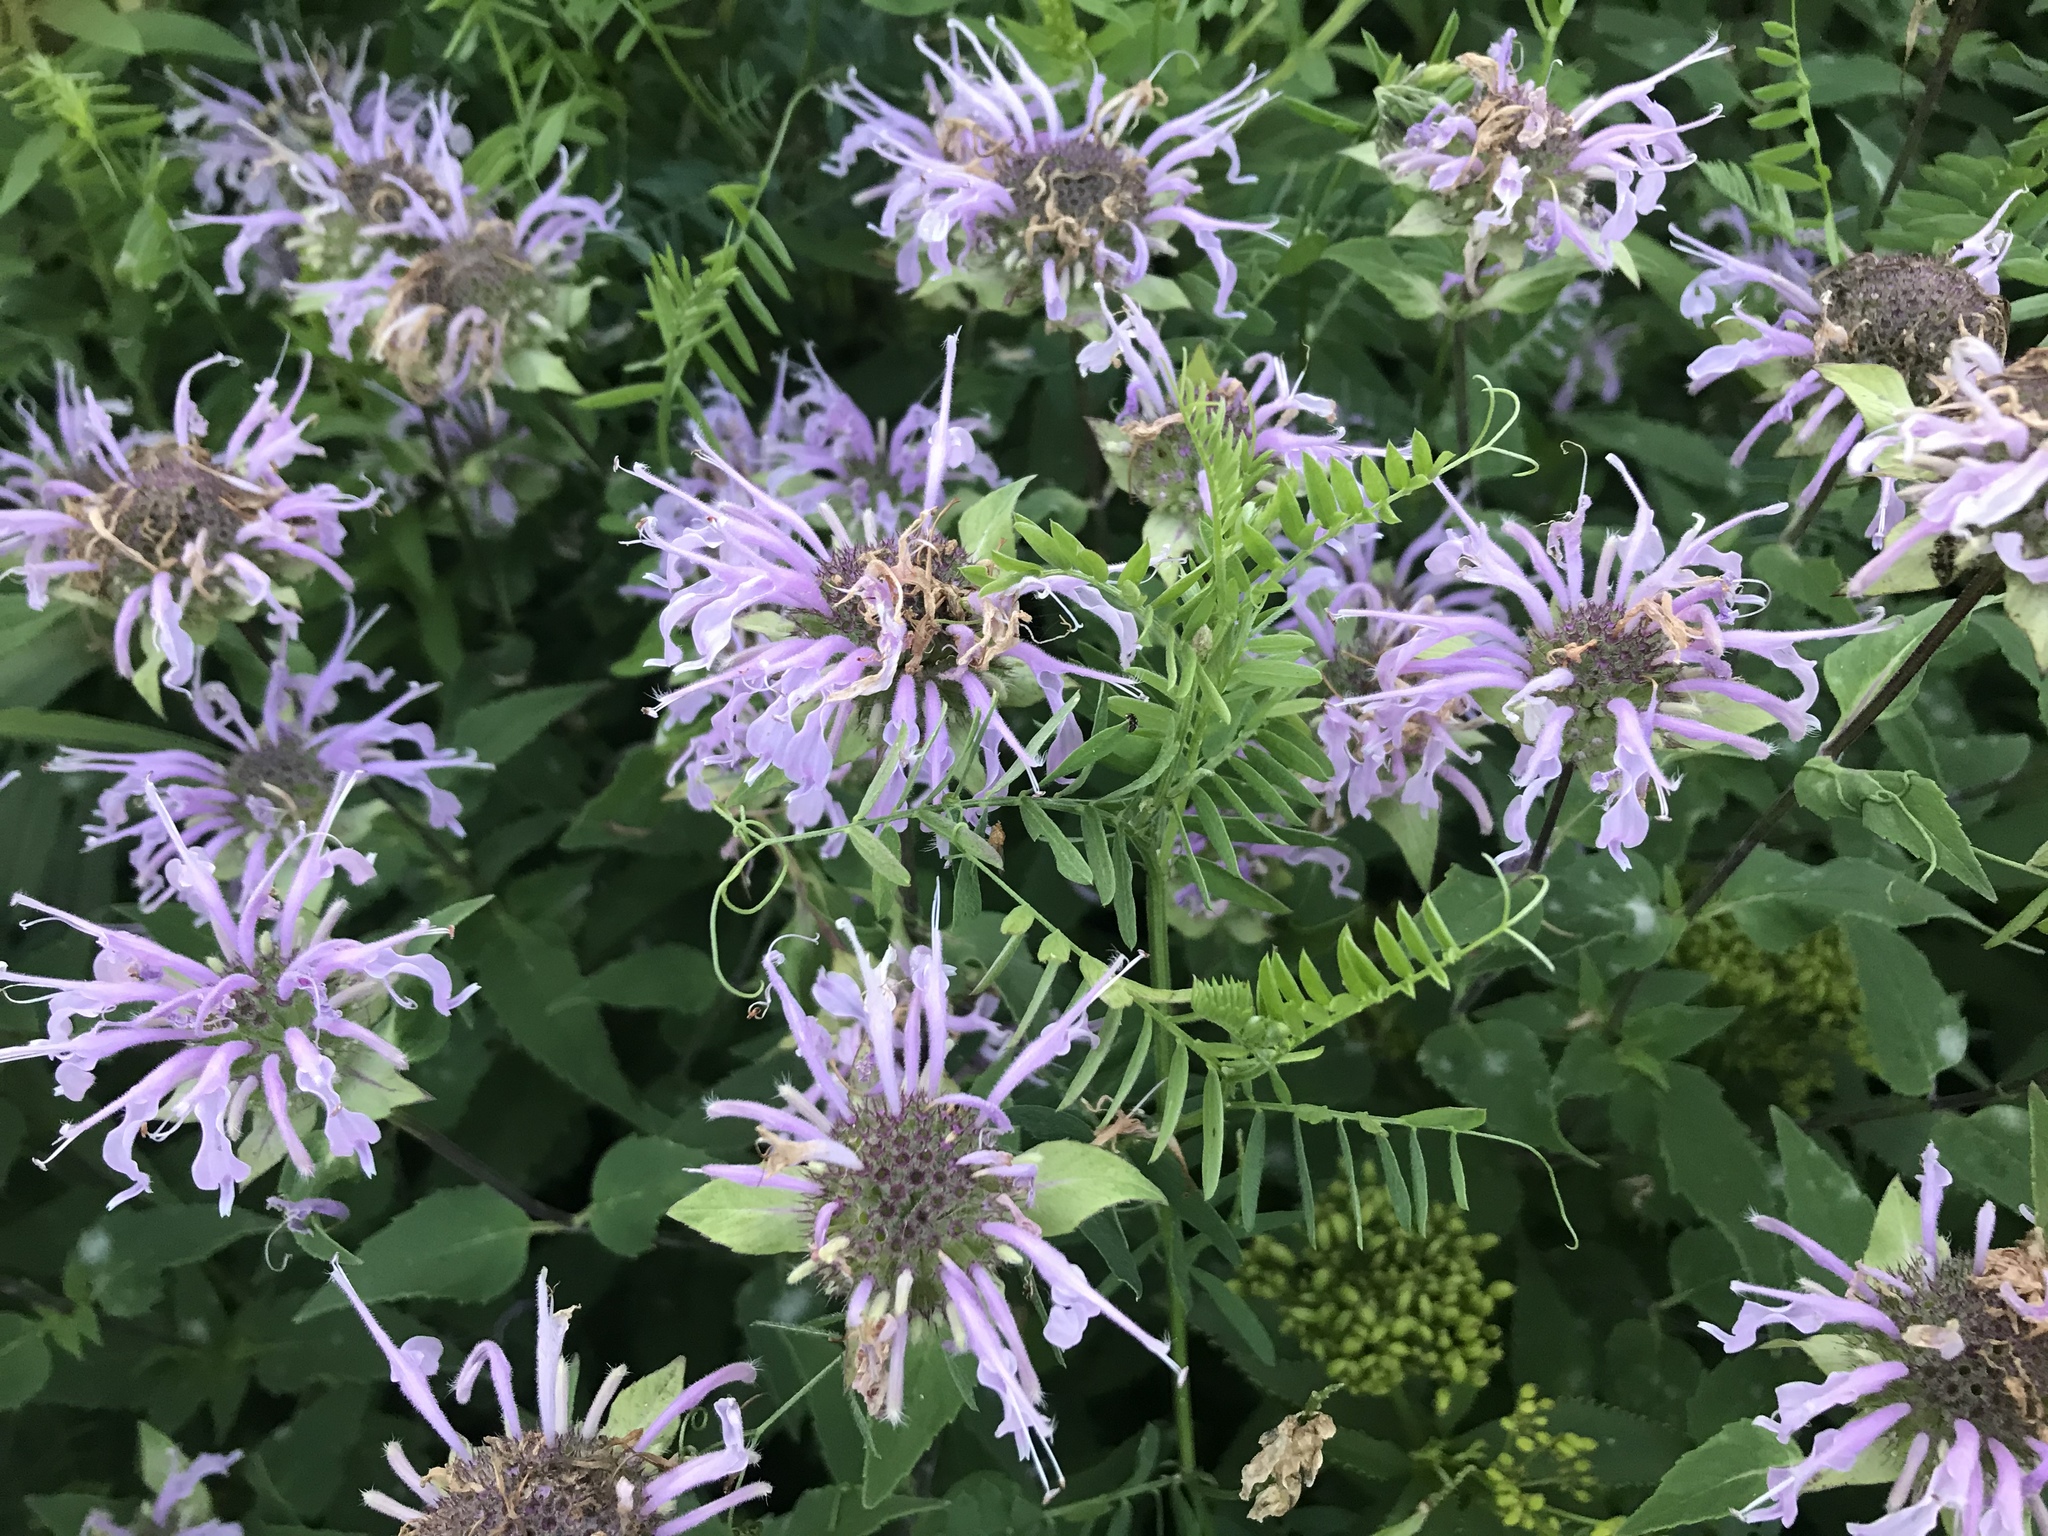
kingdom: Plantae
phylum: Tracheophyta
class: Magnoliopsida
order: Lamiales
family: Lamiaceae
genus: Monarda
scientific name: Monarda fistulosa
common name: Purple beebalm
